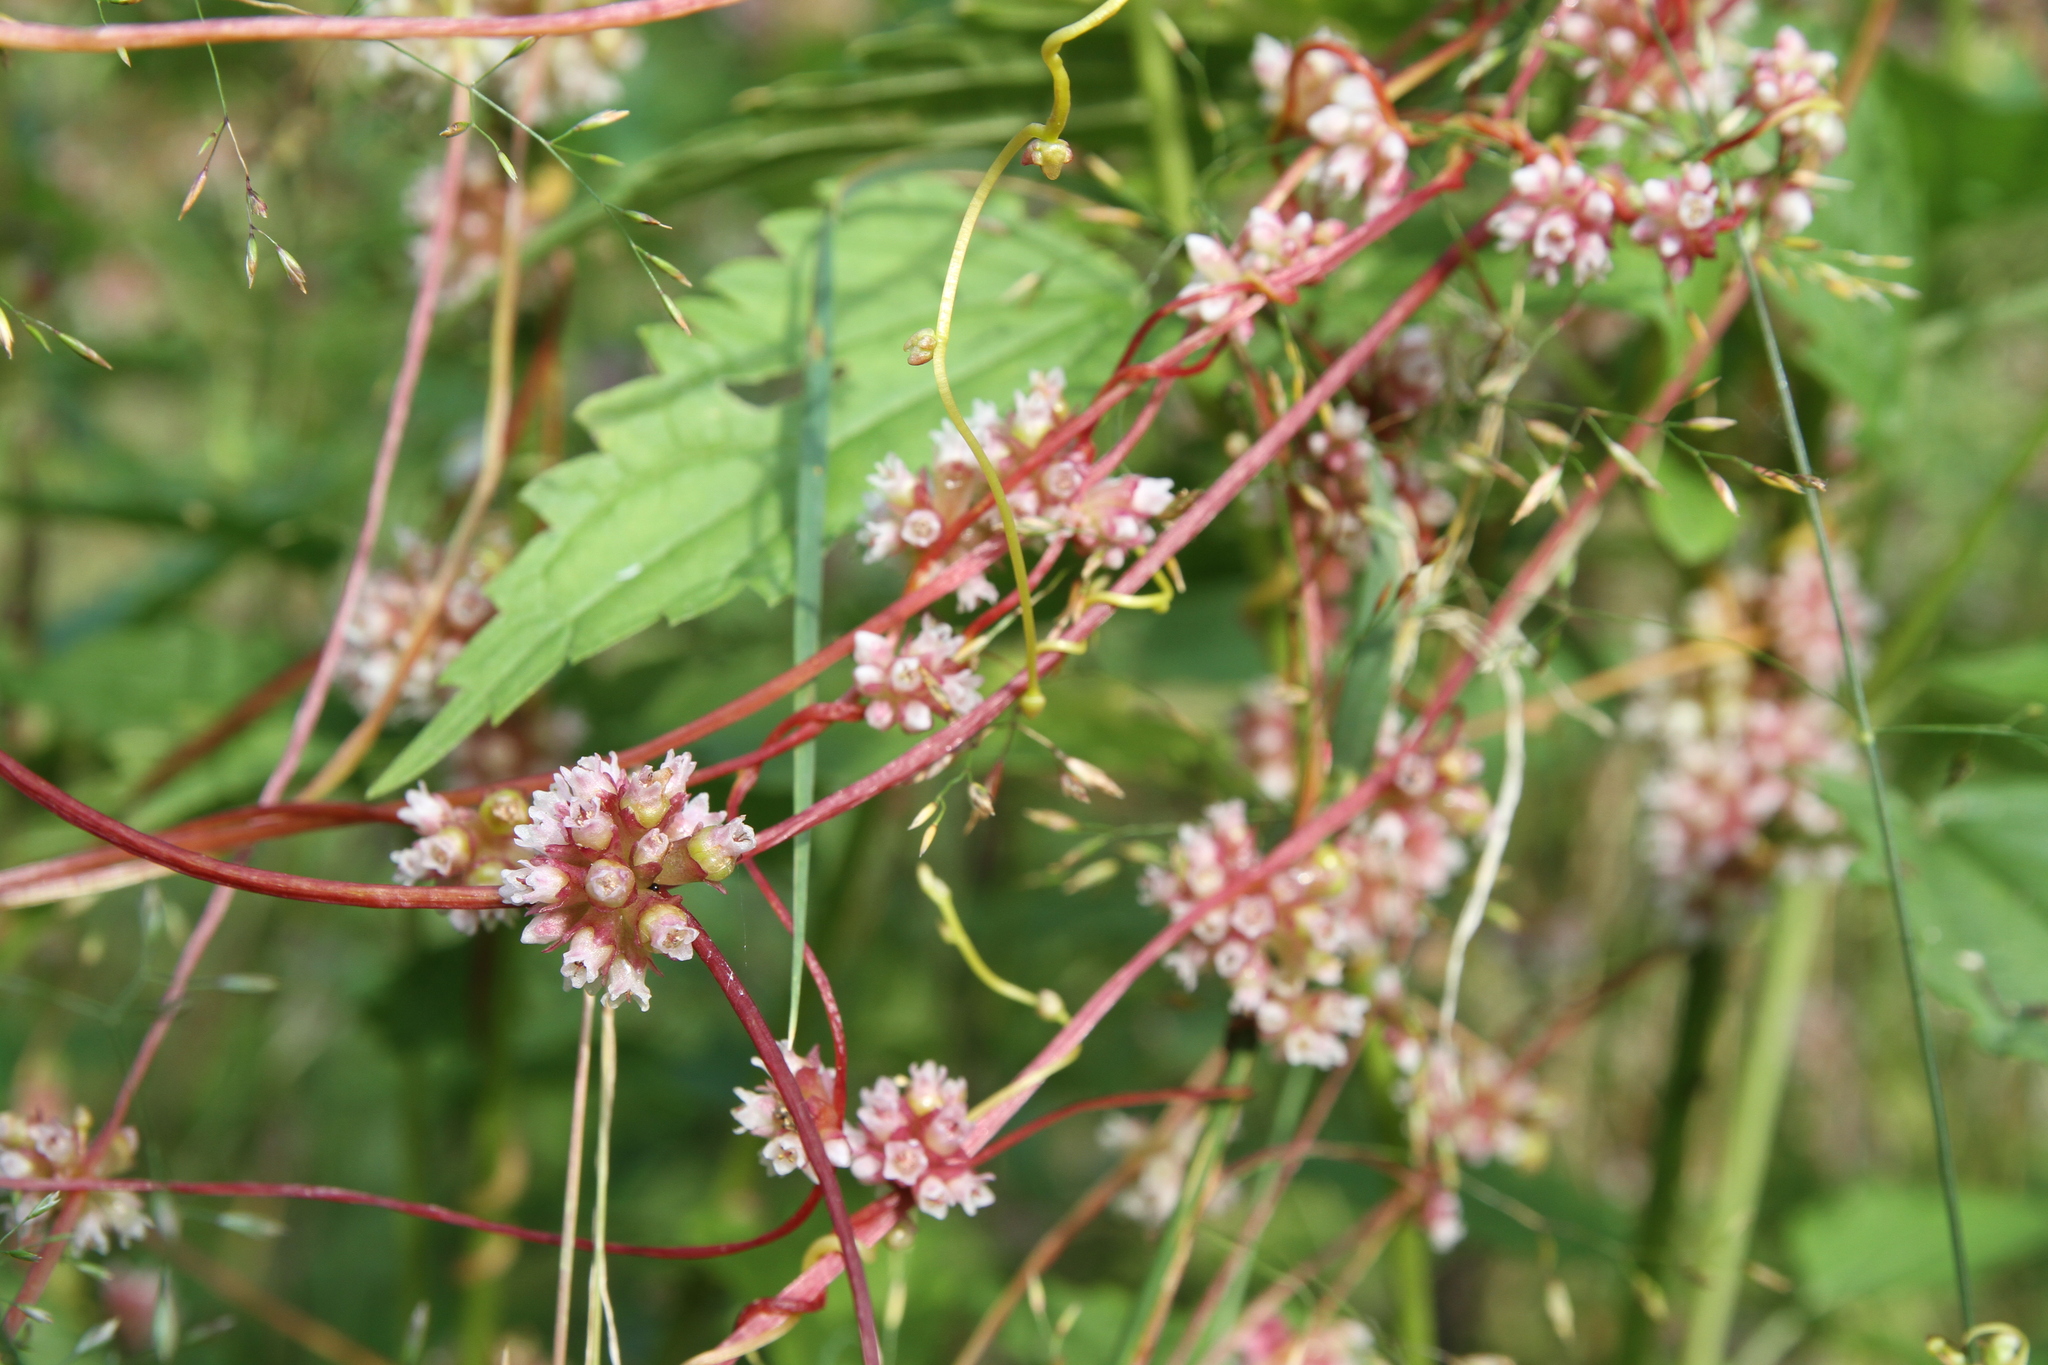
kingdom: Plantae
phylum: Tracheophyta
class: Magnoliopsida
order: Solanales
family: Convolvulaceae
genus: Cuscuta
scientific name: Cuscuta europaea
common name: Greater dodder
